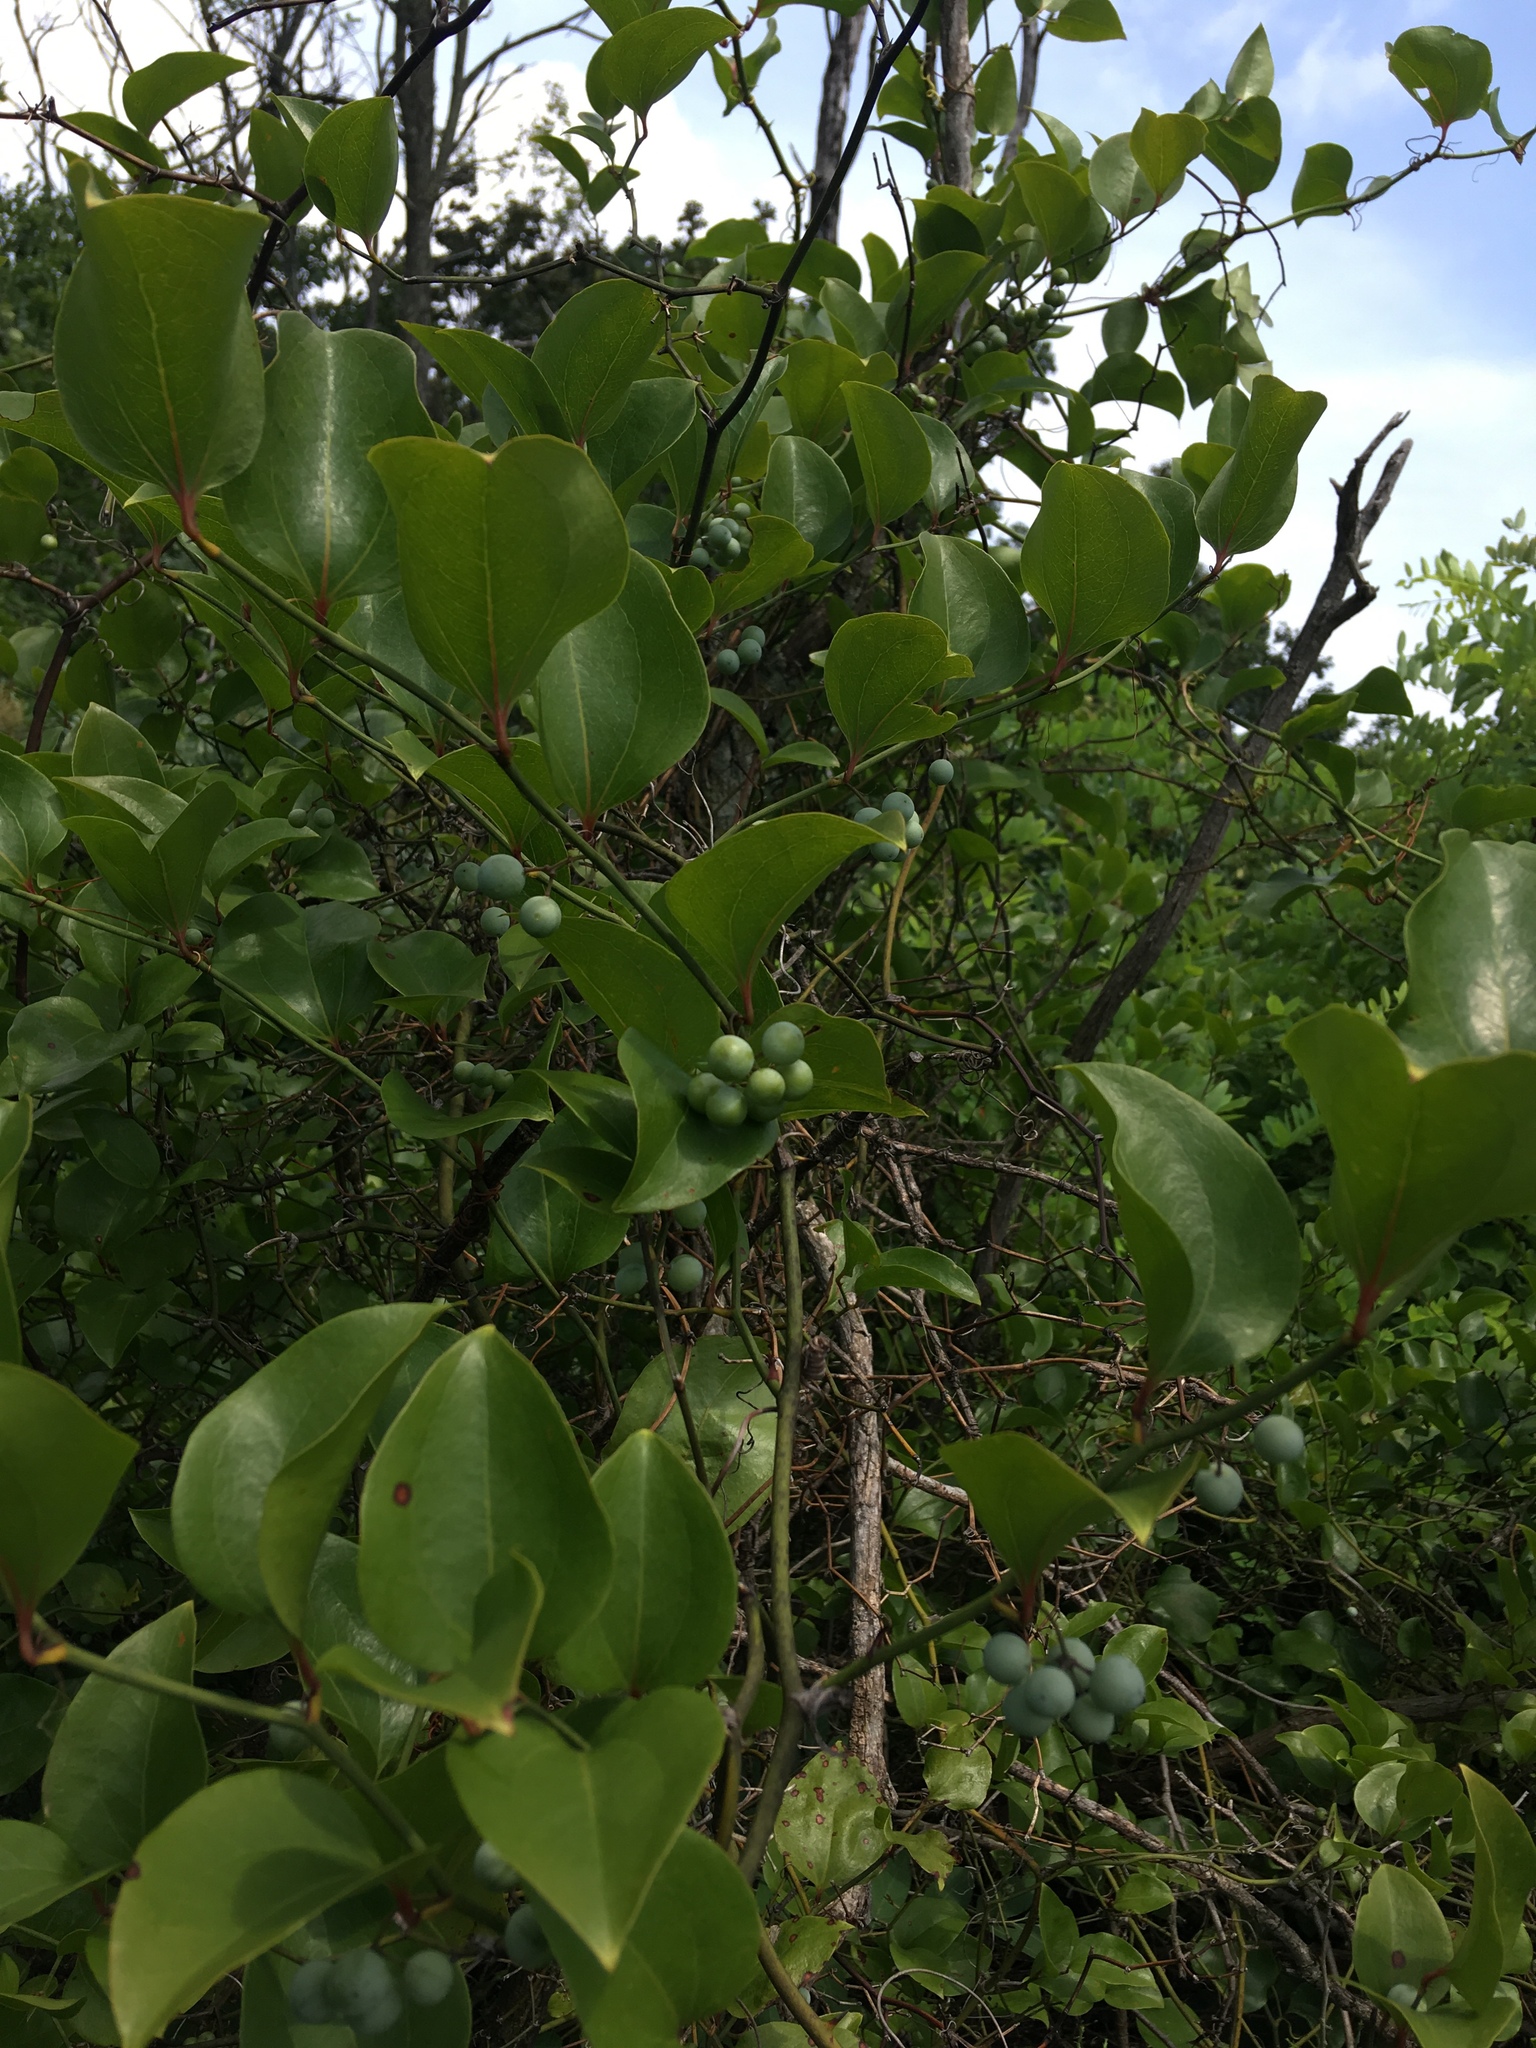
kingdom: Plantae
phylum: Tracheophyta
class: Liliopsida
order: Liliales
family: Smilacaceae
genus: Smilax
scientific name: Smilax rotundifolia
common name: Bullbriar
